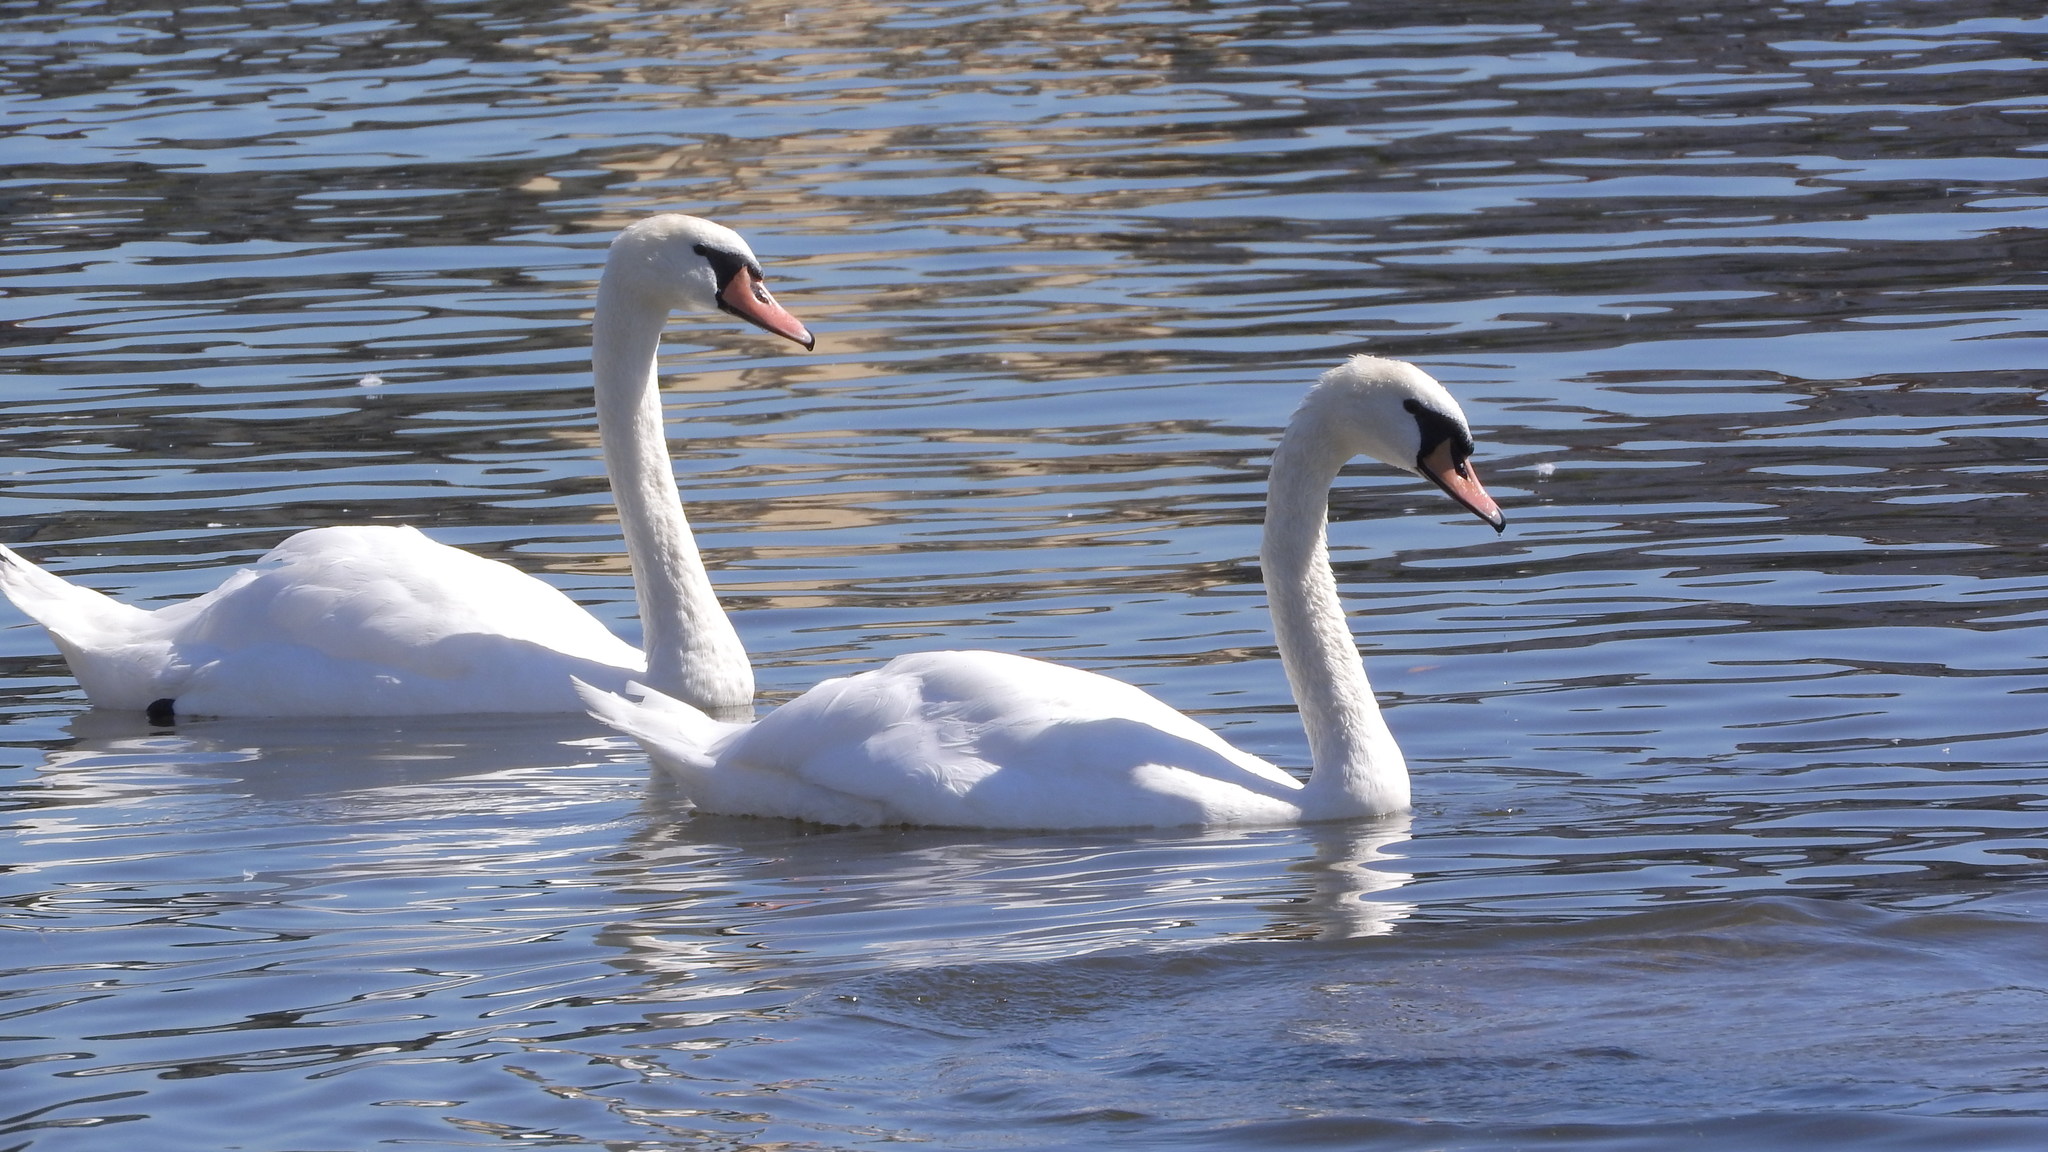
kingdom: Animalia
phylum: Chordata
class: Aves
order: Anseriformes
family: Anatidae
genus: Cygnus
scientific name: Cygnus olor
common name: Mute swan
